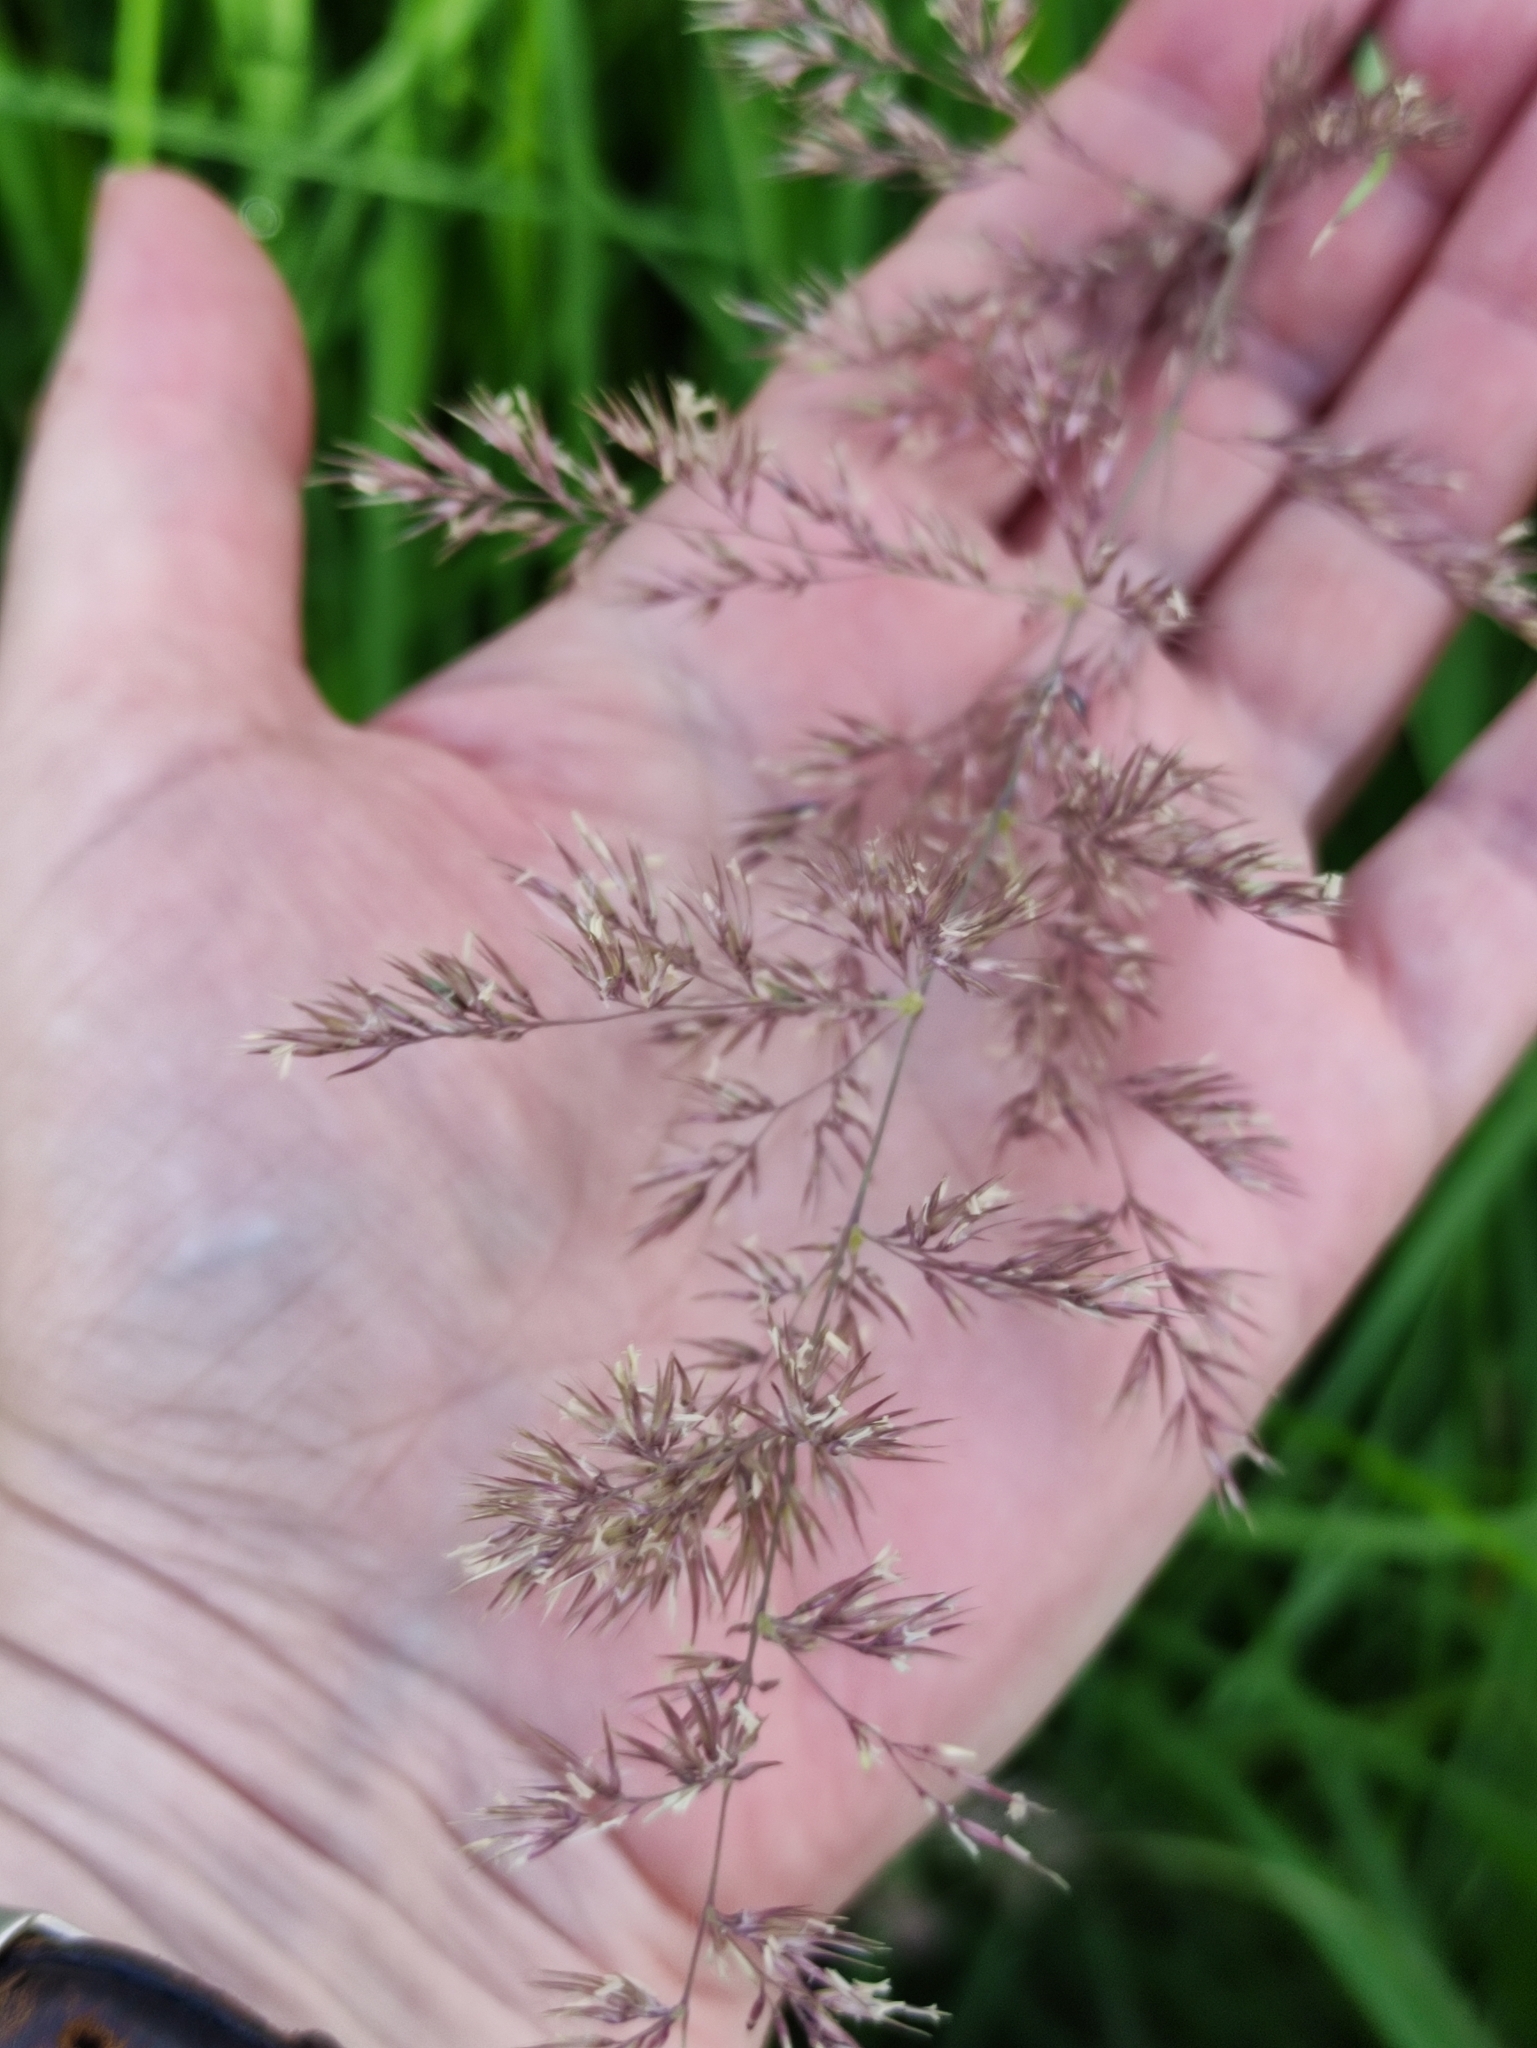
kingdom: Plantae
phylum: Tracheophyta
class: Liliopsida
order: Poales
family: Poaceae
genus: Calamagrostis
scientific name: Calamagrostis epigejos
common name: Wood small-reed
